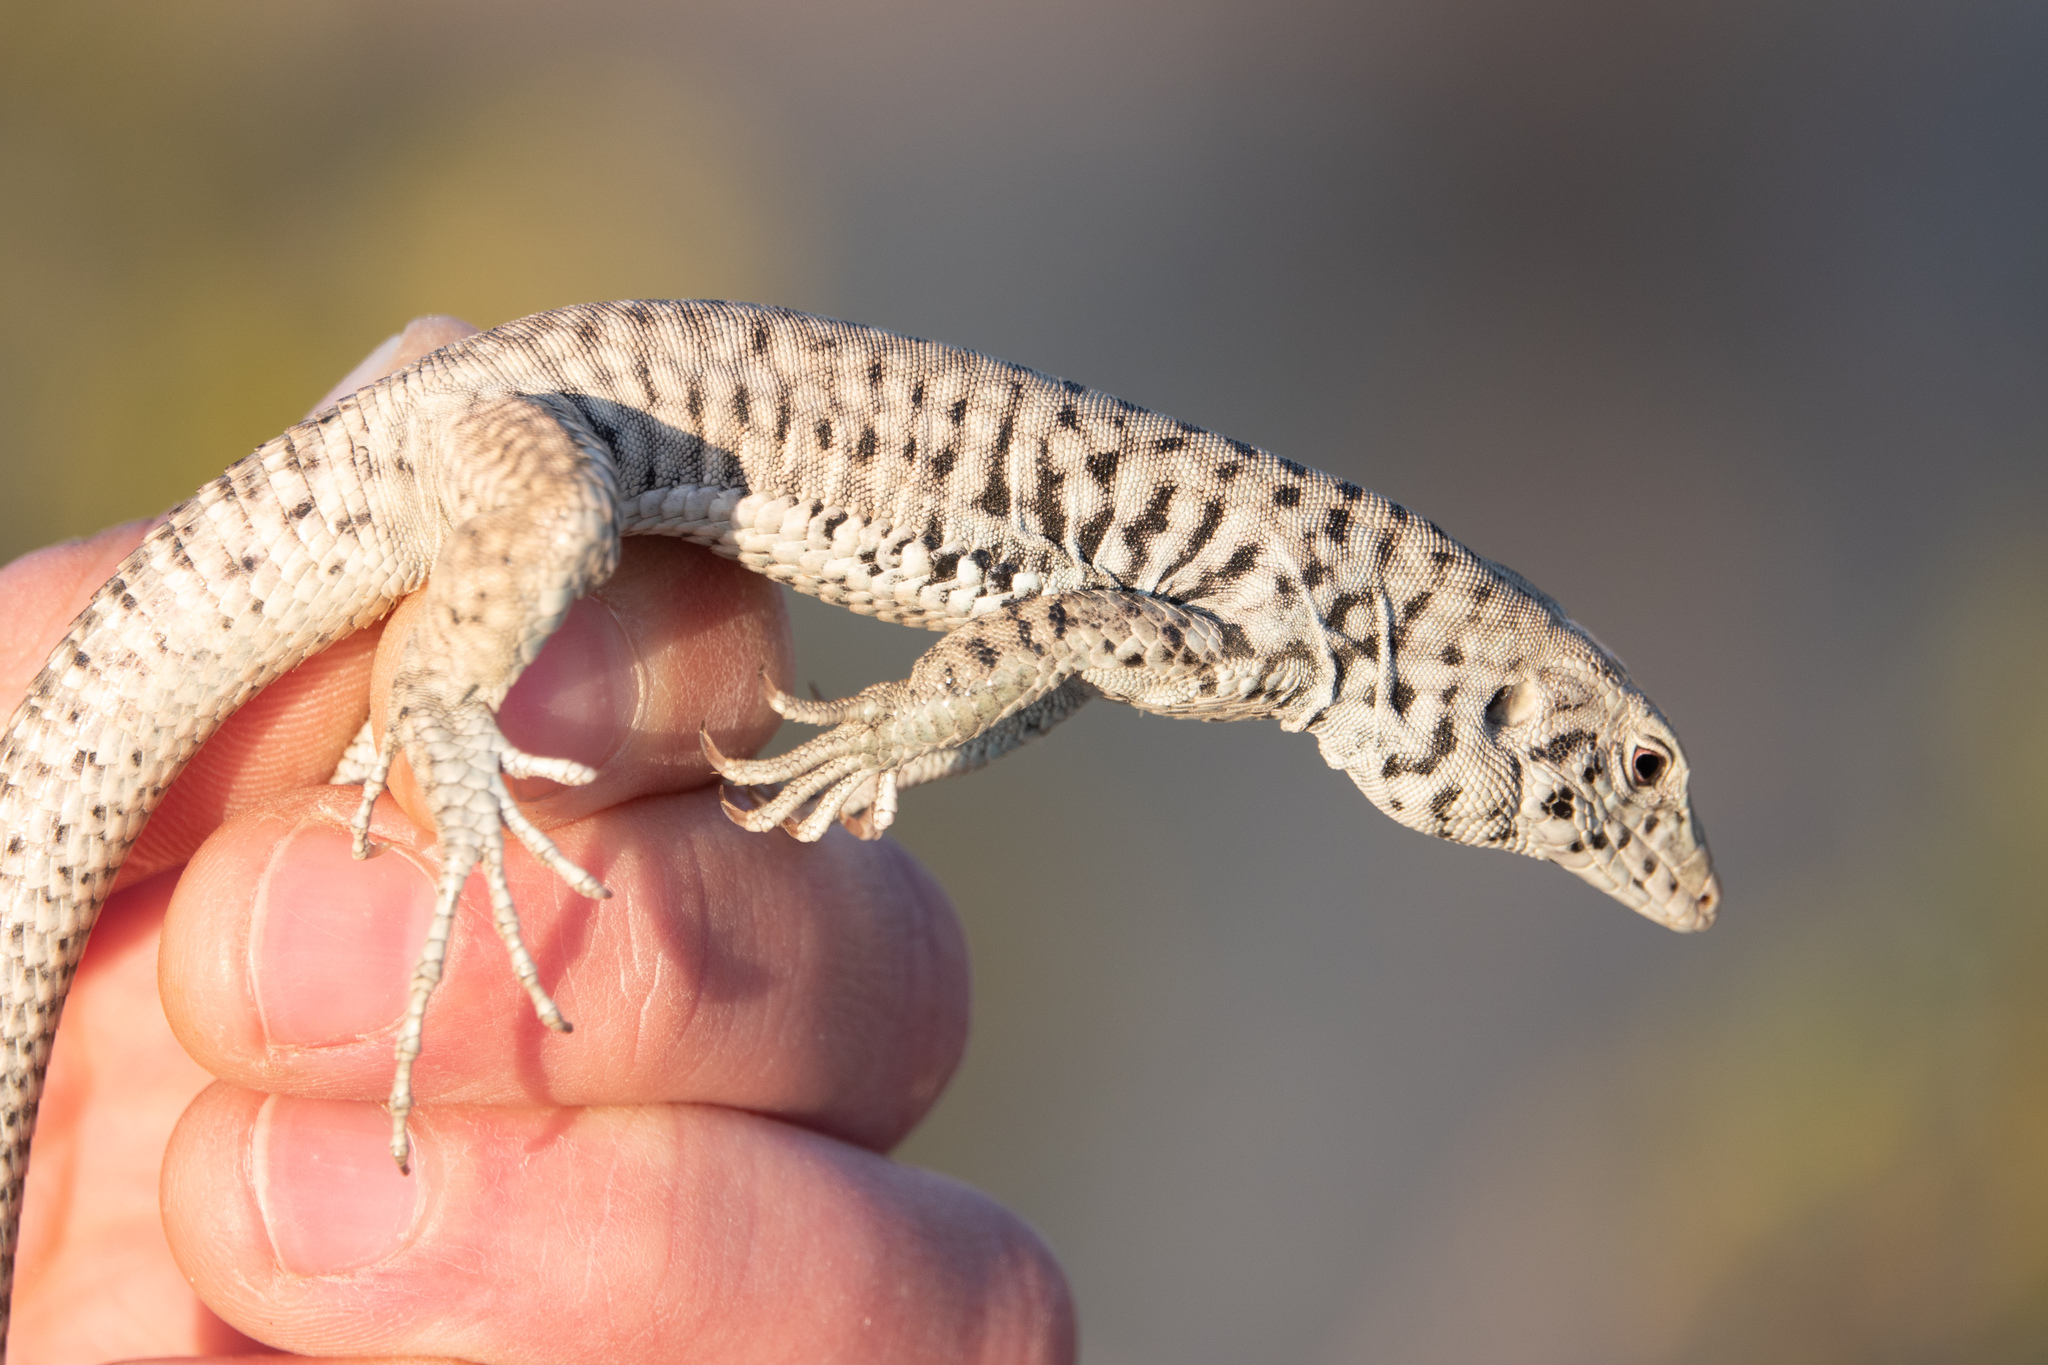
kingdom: Animalia
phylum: Chordata
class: Squamata
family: Teiidae
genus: Aspidoscelis
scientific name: Aspidoscelis tigris
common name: Tiger whiptail
